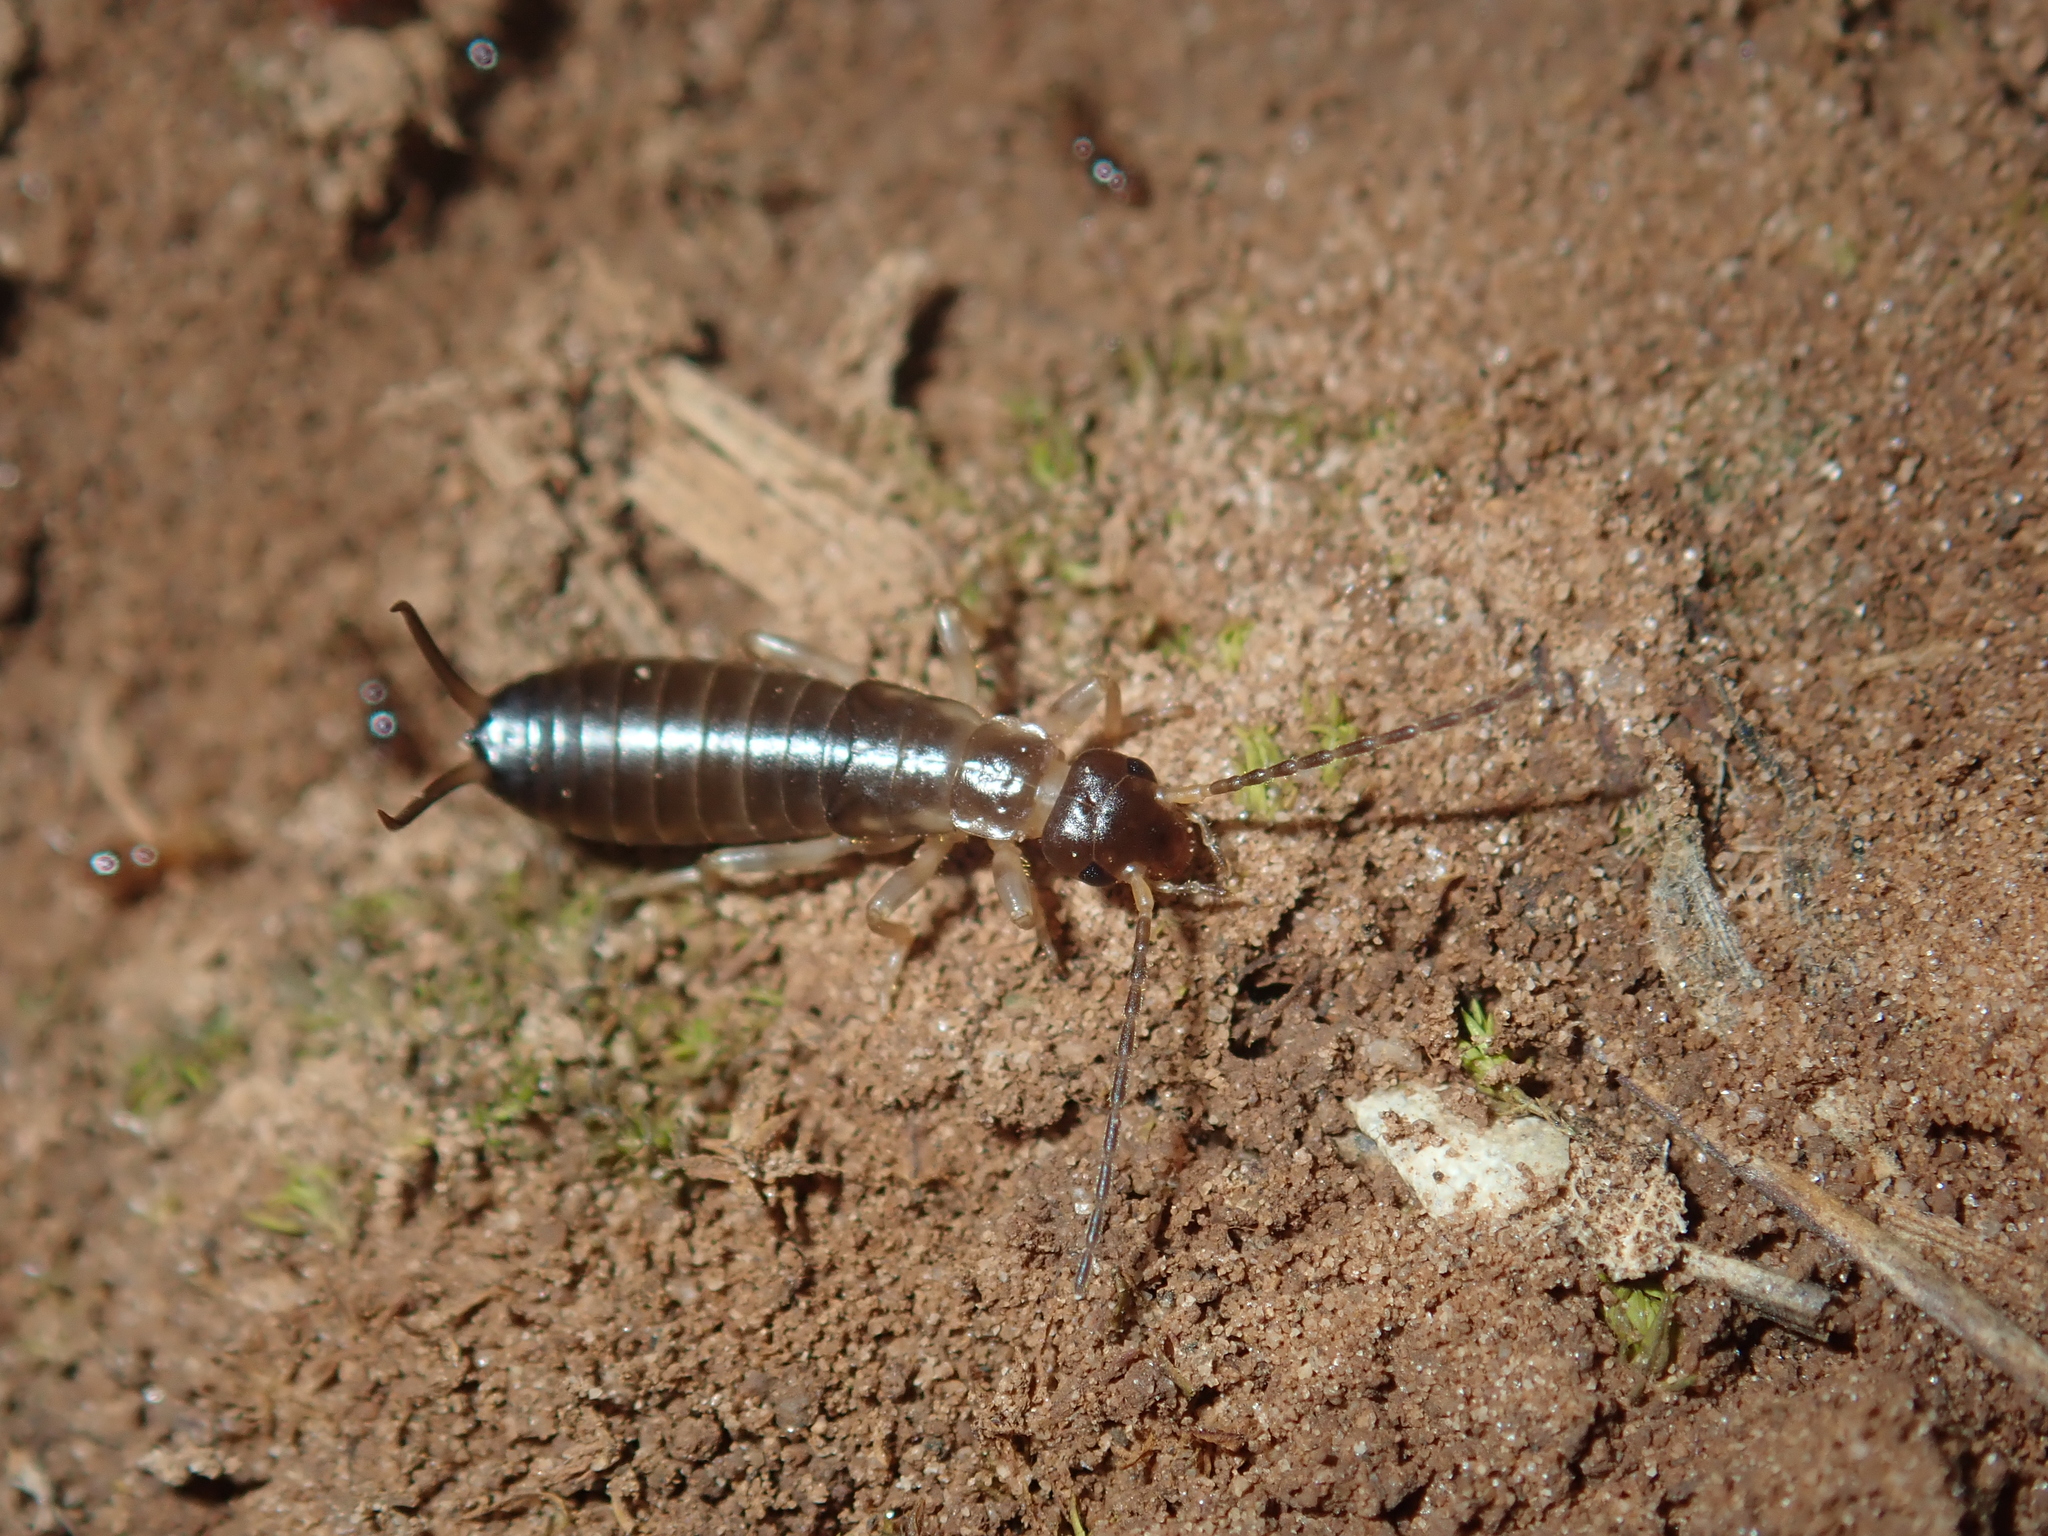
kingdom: Animalia
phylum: Arthropoda
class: Insecta
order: Dermaptera
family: Forficulidae
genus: Forficula
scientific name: Forficula
